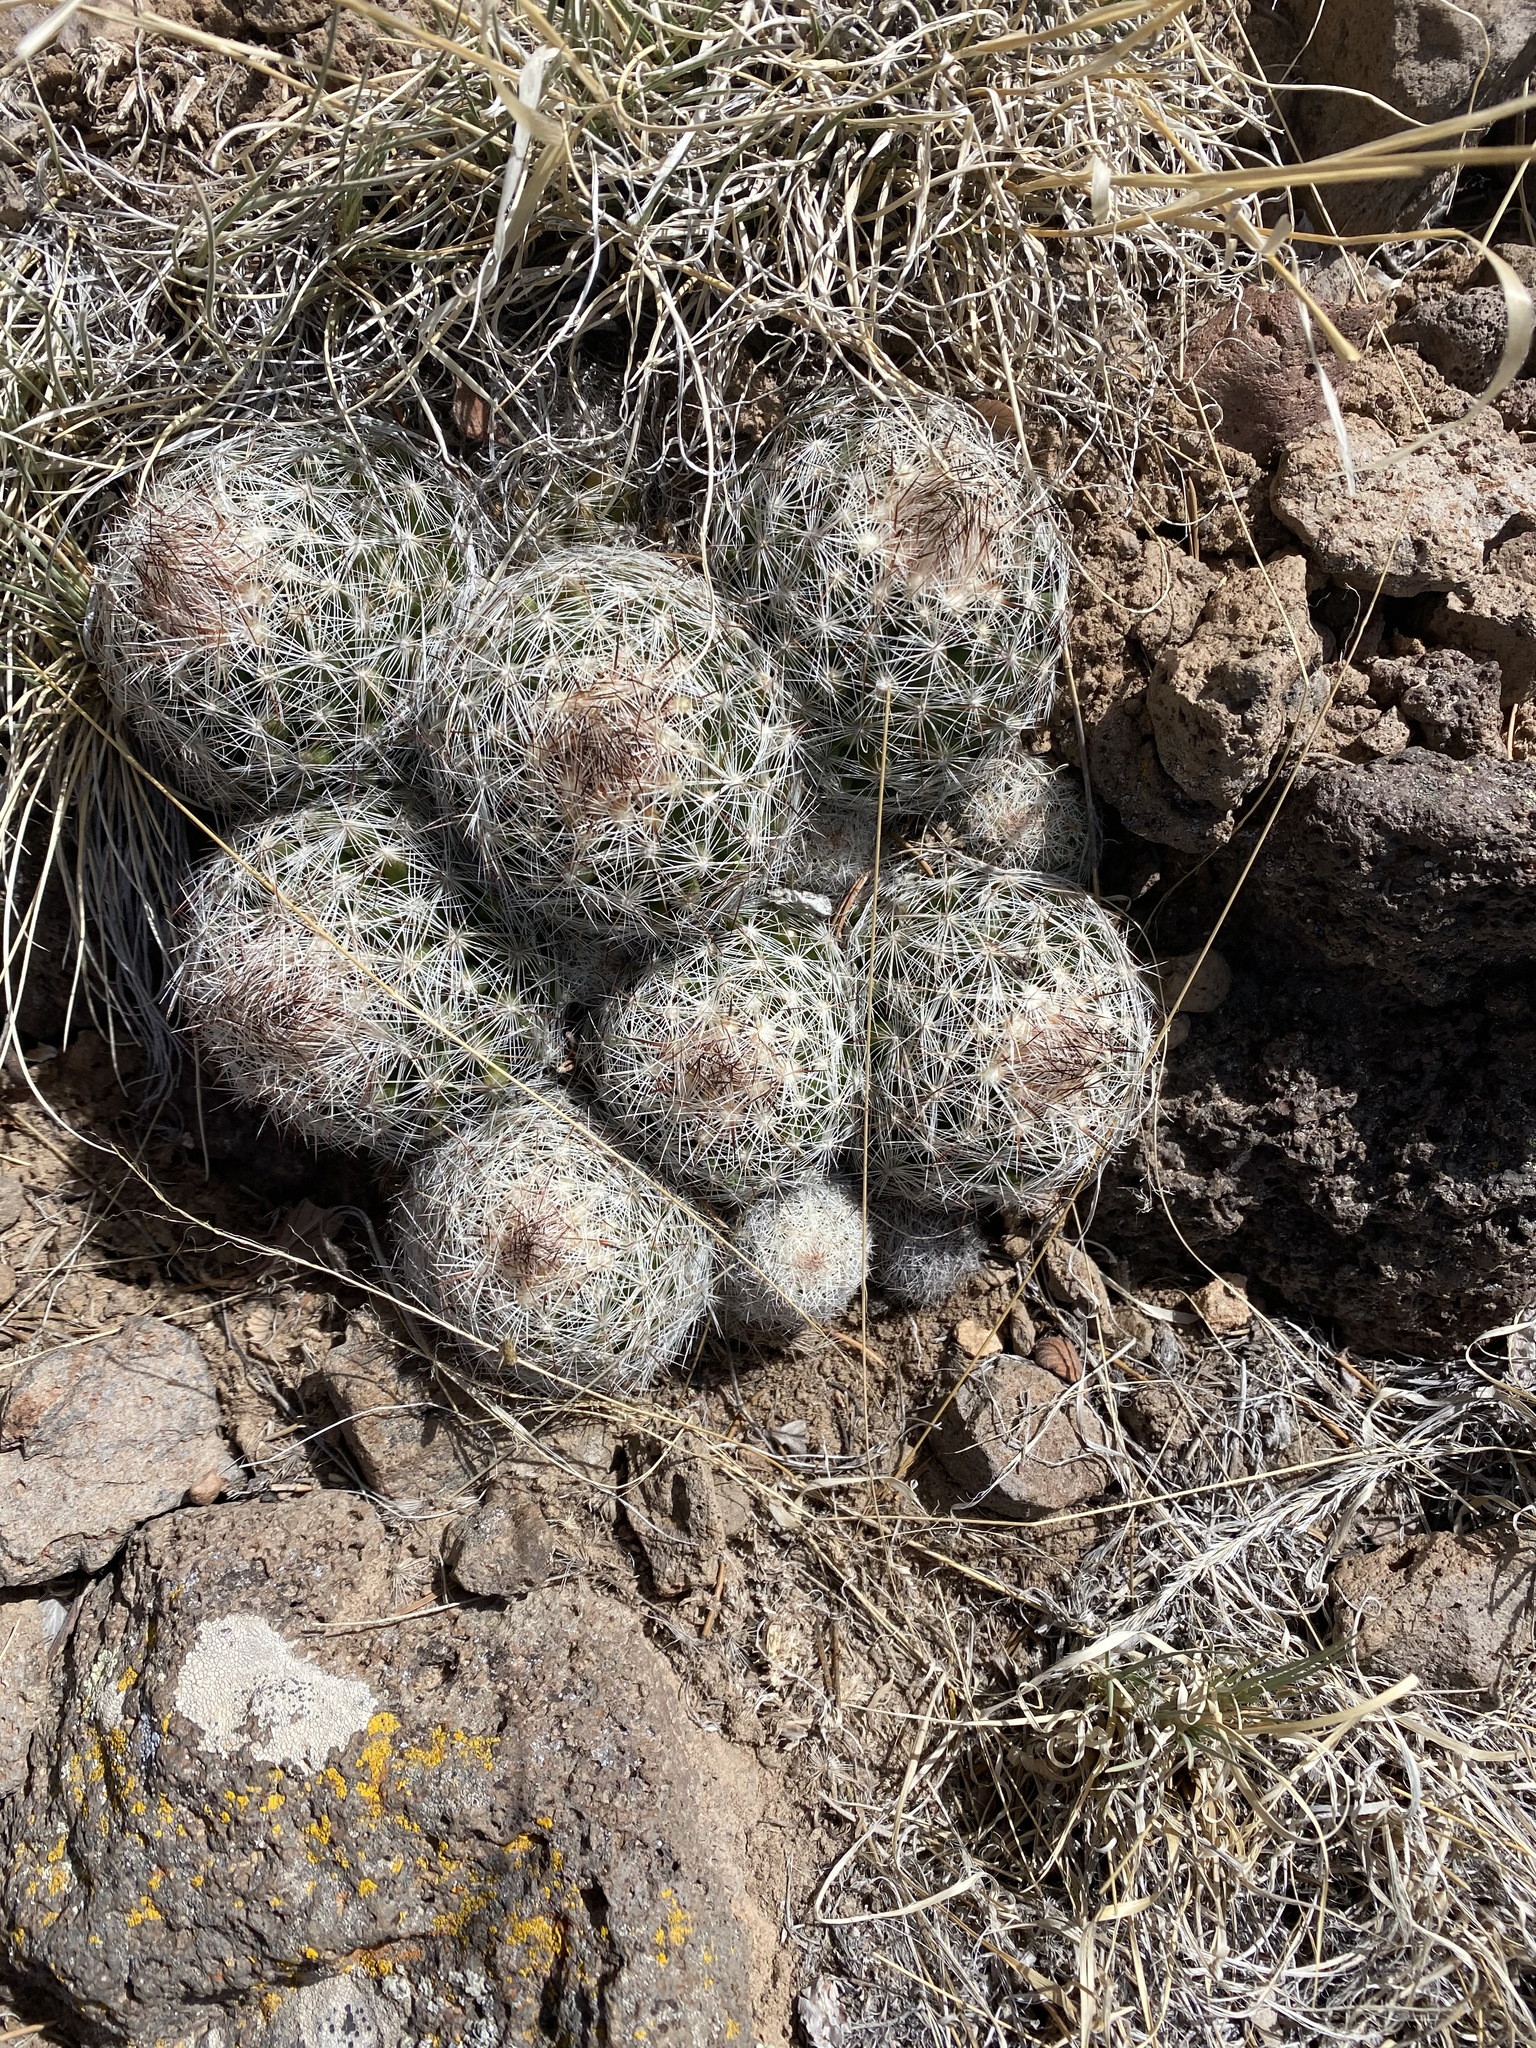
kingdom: Plantae
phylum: Tracheophyta
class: Magnoliopsida
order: Caryophyllales
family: Cactaceae
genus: Pelecyphora
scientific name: Pelecyphora vivipara
